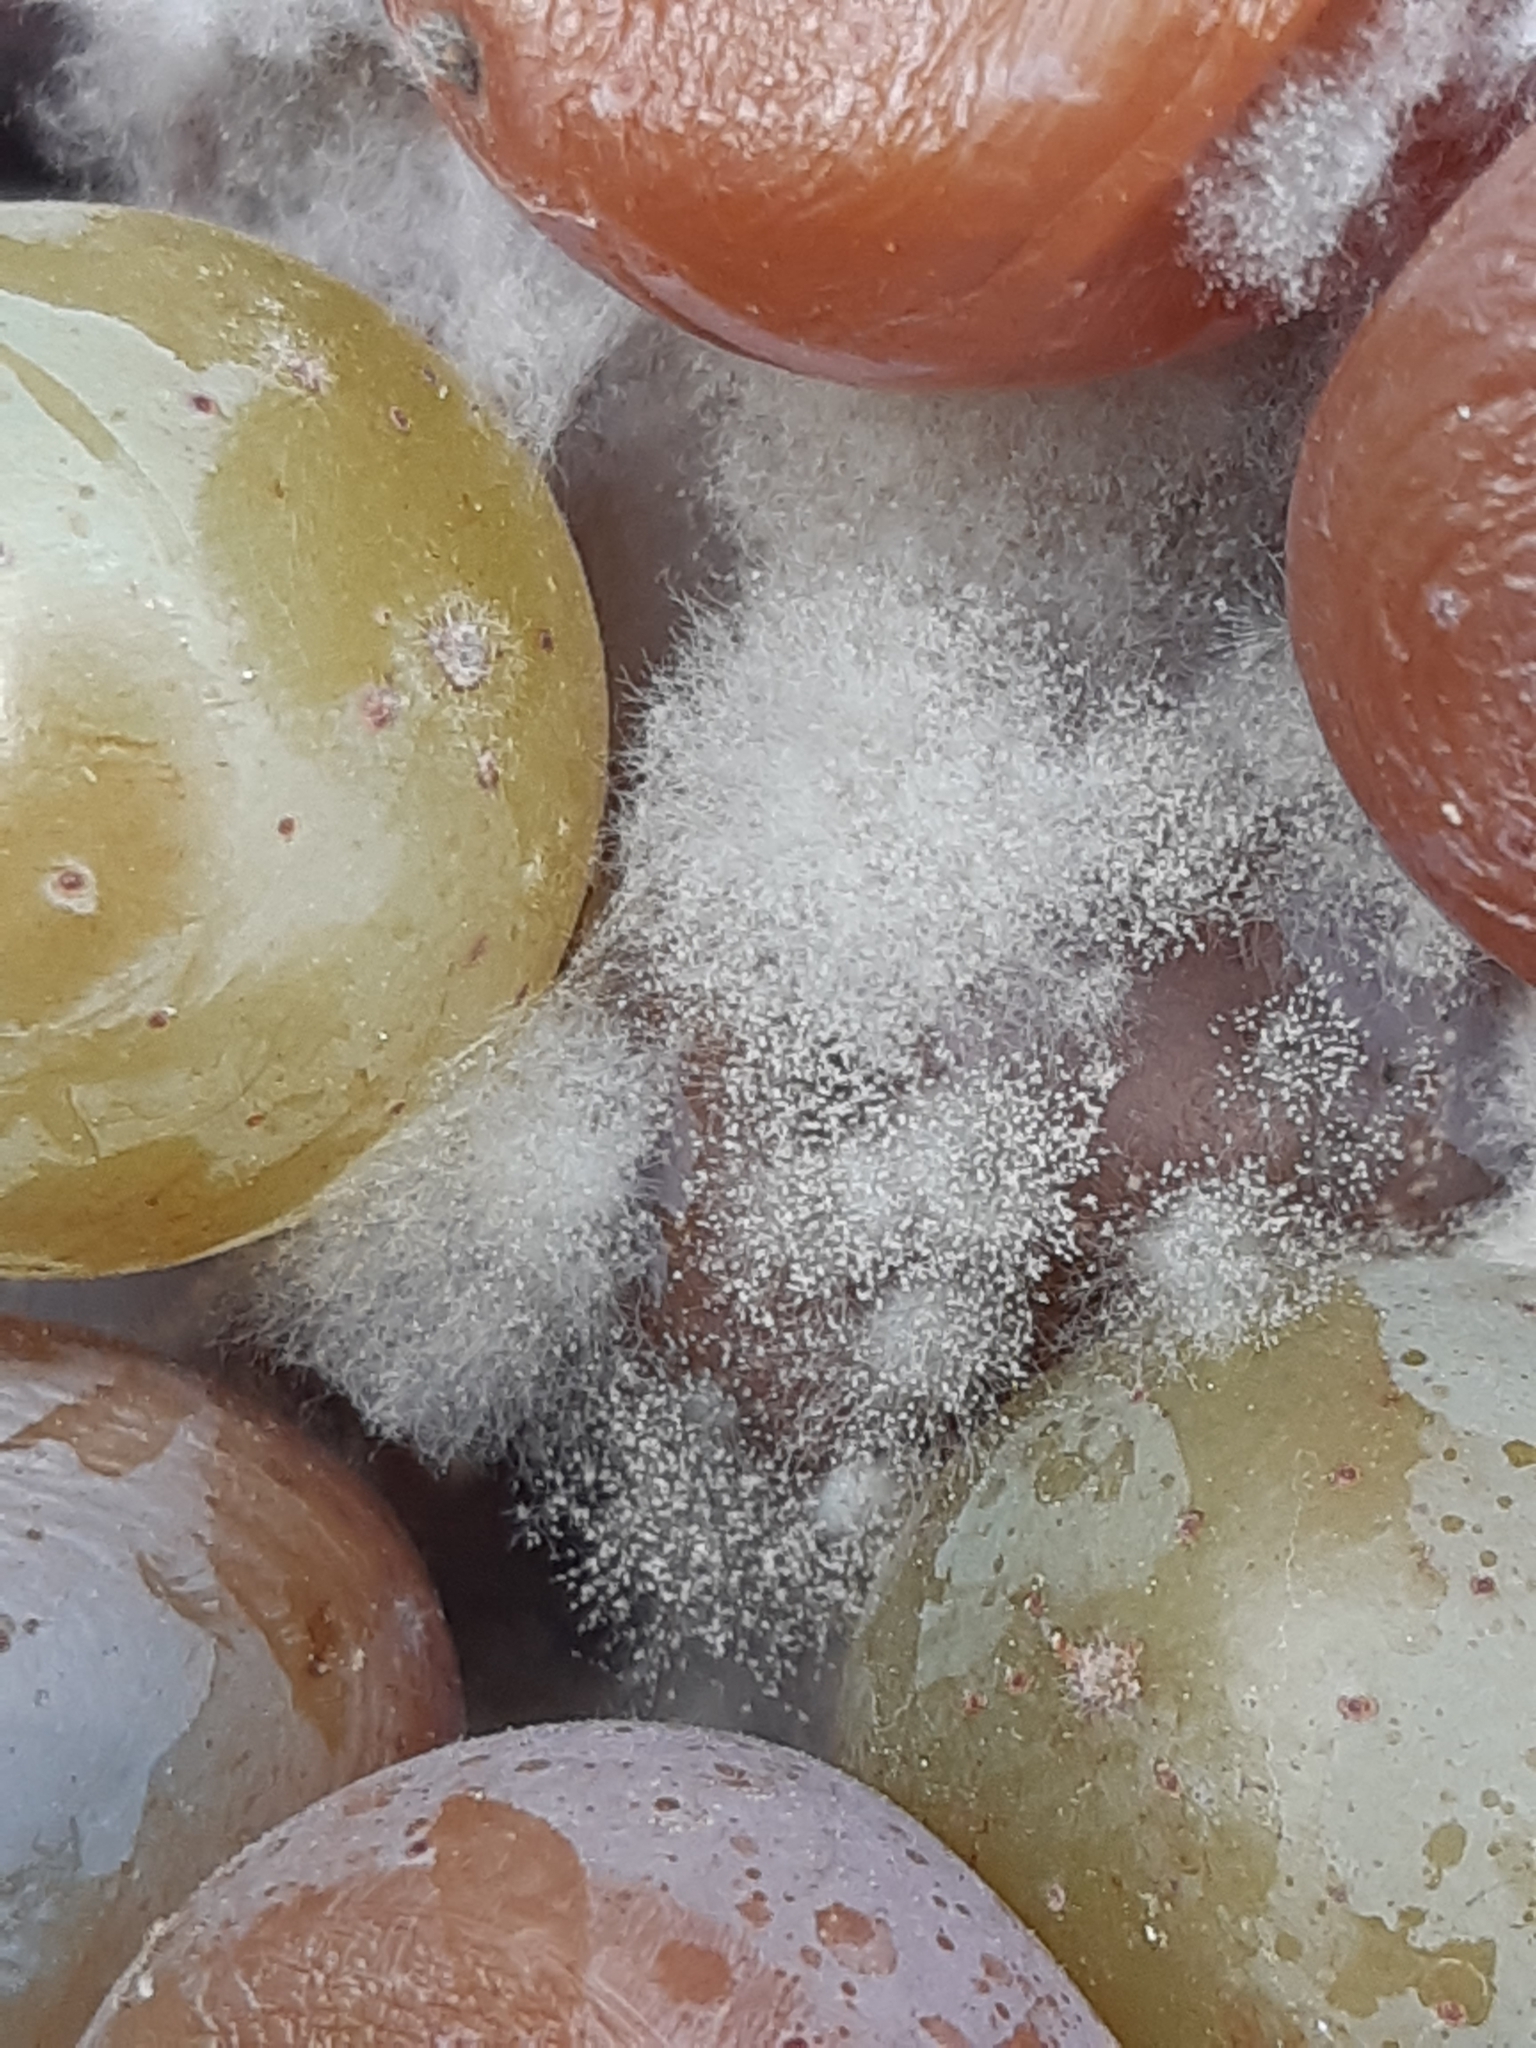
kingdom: Fungi
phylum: Ascomycota
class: Leotiomycetes
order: Helotiales
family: Sclerotiniaceae
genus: Botrytis
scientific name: Botrytis cinerea
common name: Grey mould
